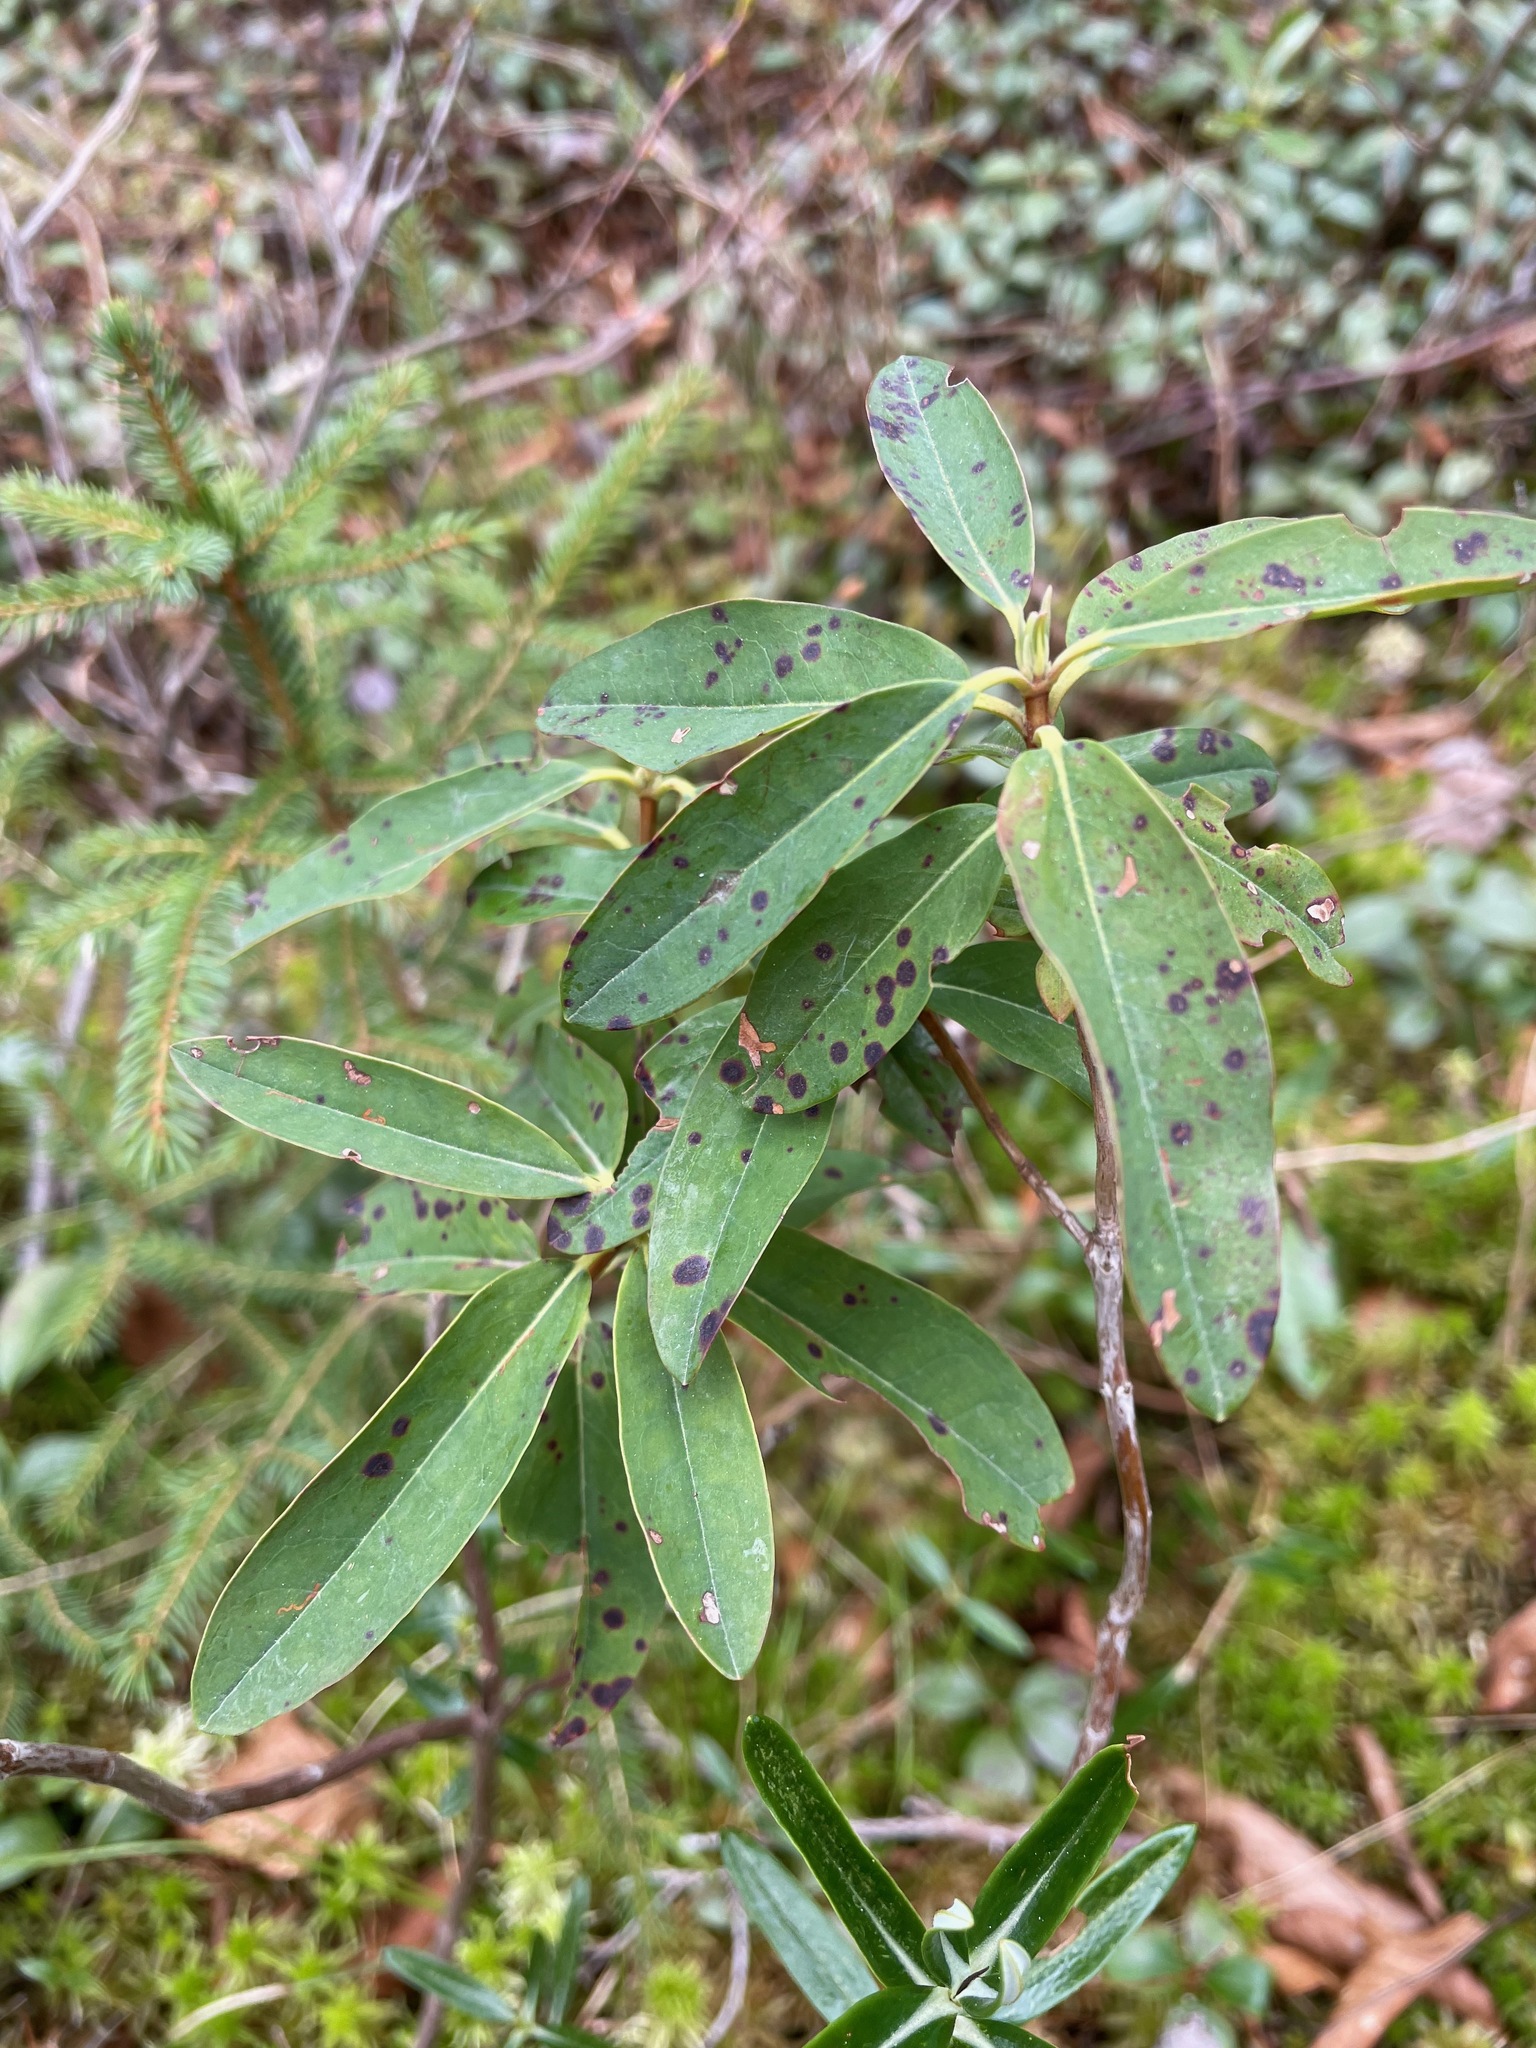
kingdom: Plantae
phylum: Tracheophyta
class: Magnoliopsida
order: Ericales
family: Ericaceae
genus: Kalmia
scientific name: Kalmia angustifolia
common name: Sheep-laurel
